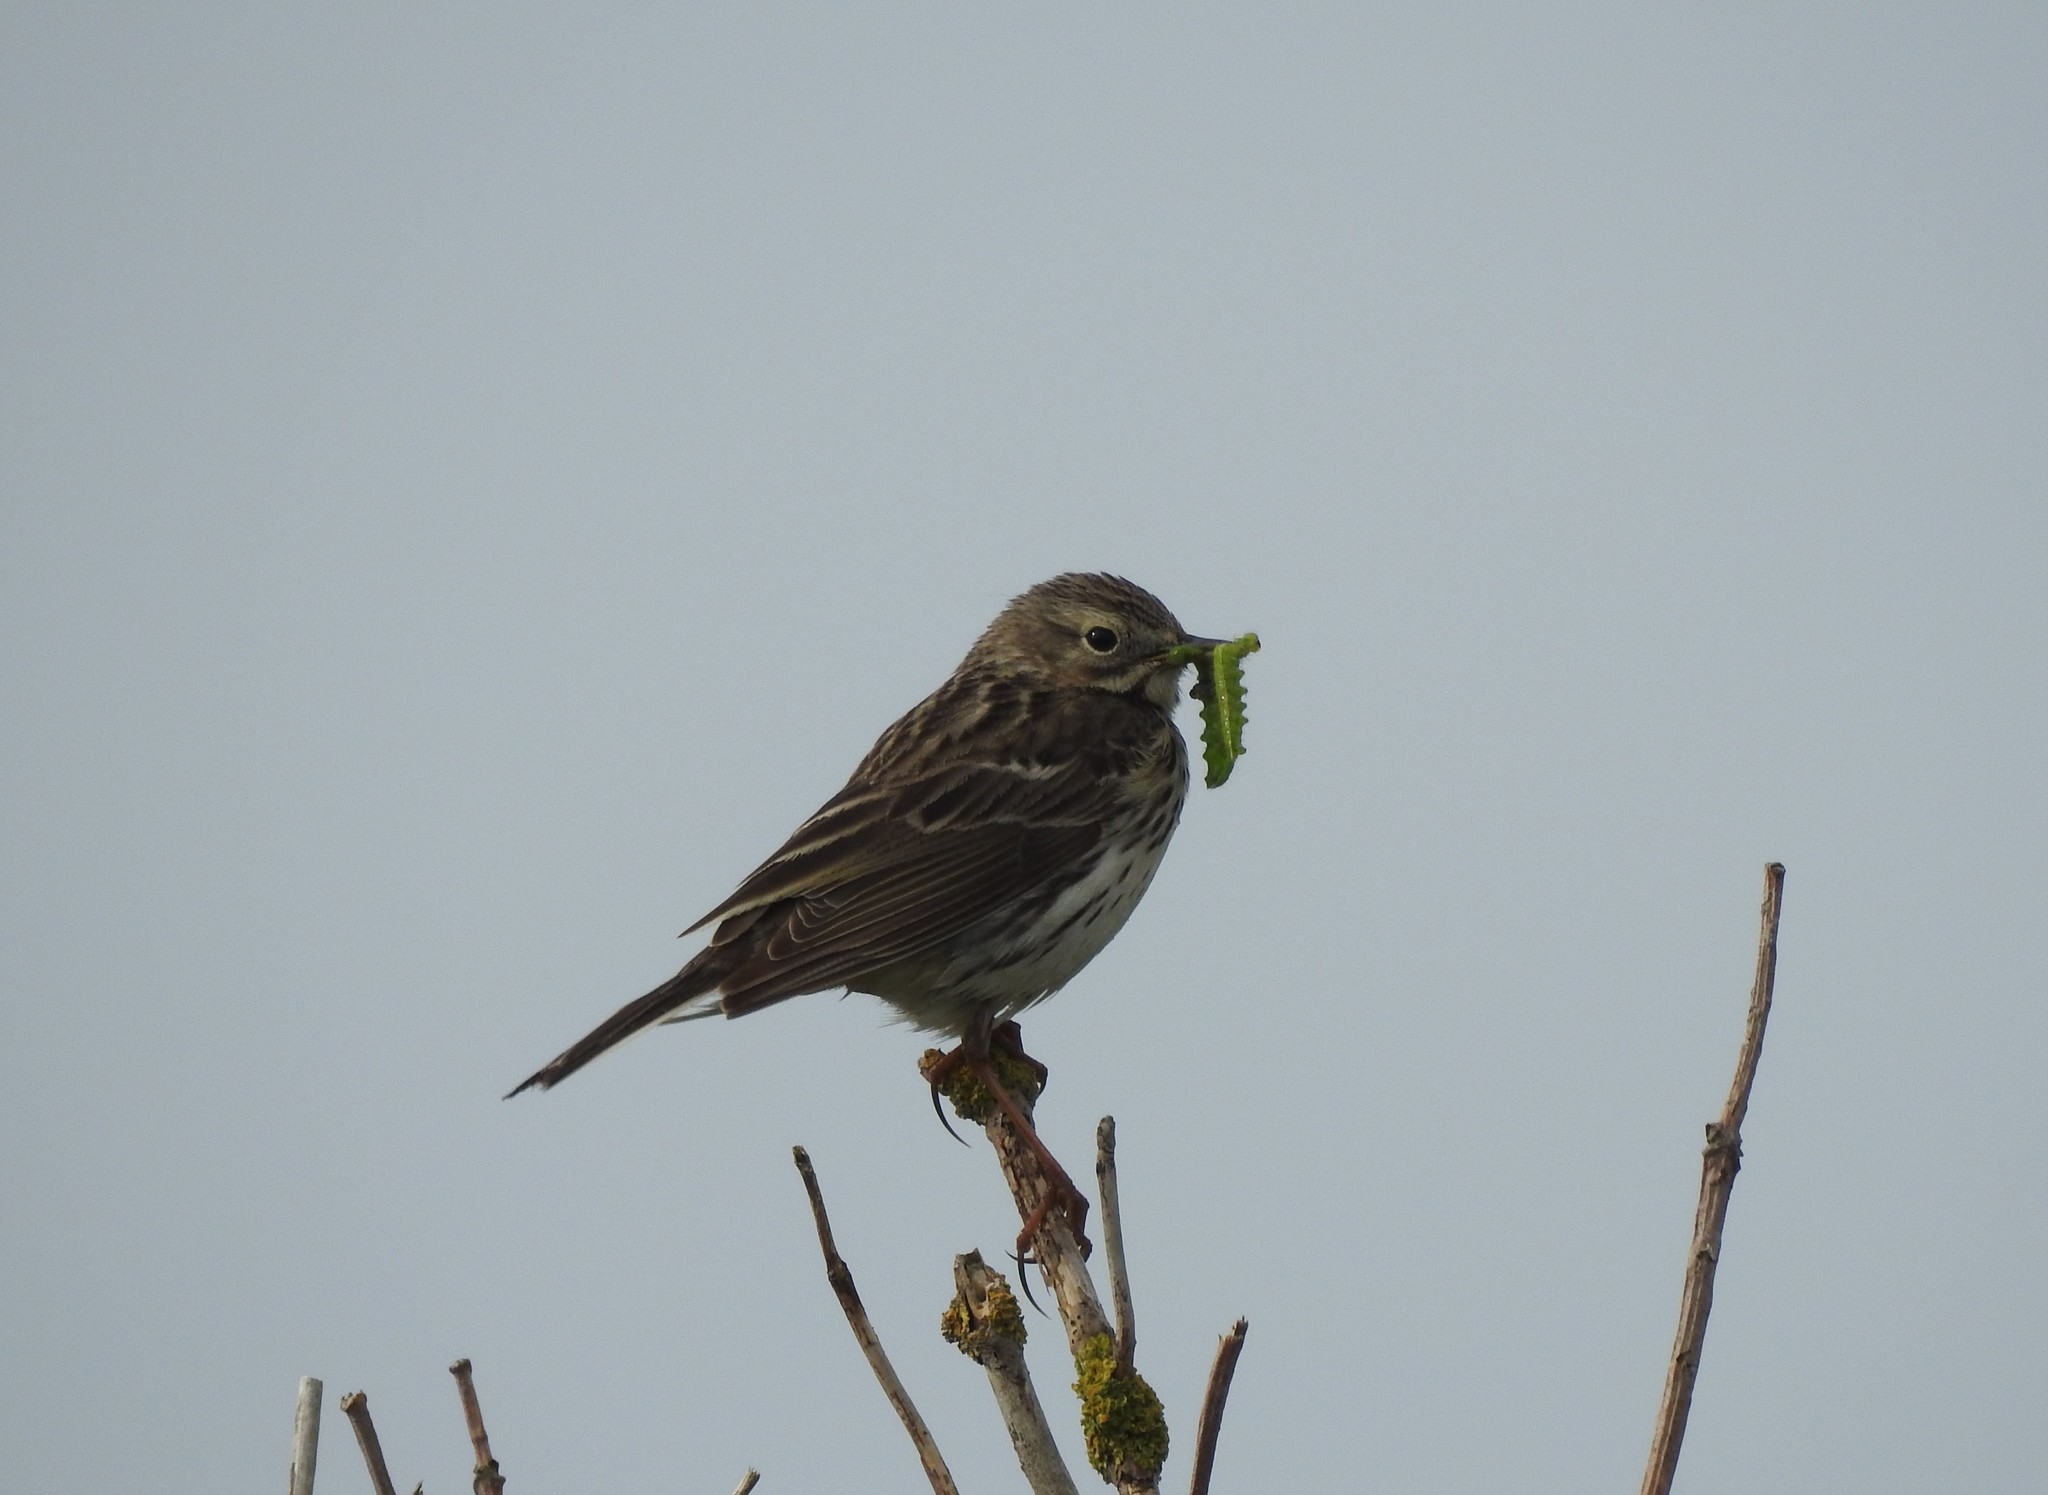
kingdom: Animalia
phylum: Chordata
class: Aves
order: Passeriformes
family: Motacillidae
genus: Anthus
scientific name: Anthus pratensis
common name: Meadow pipit
